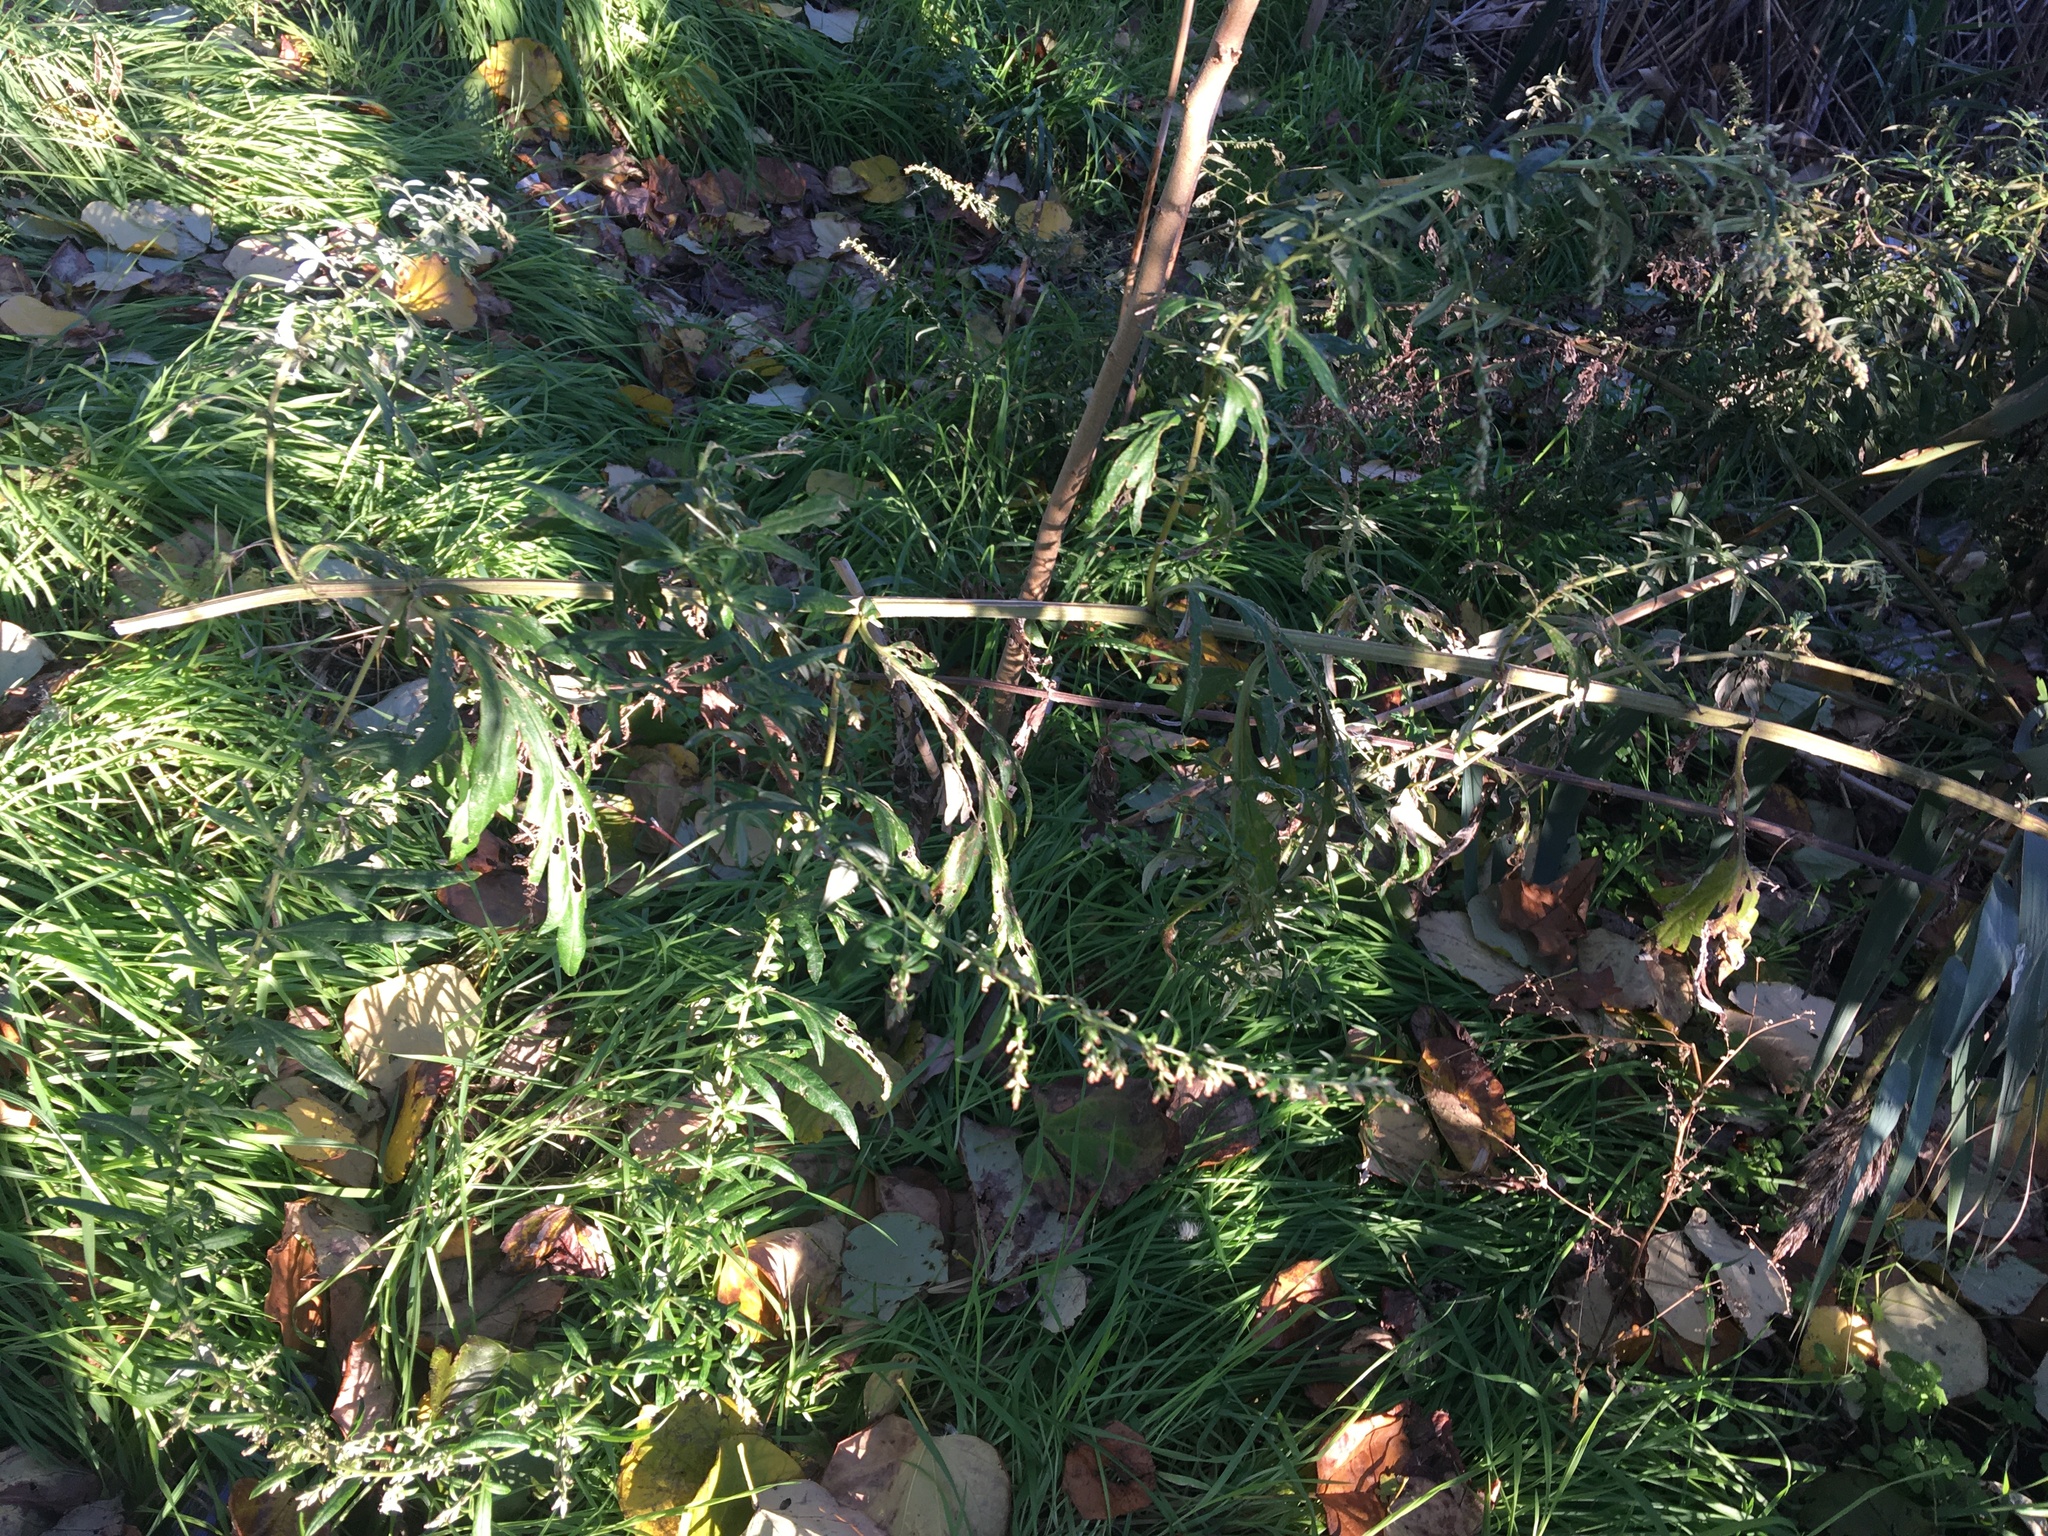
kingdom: Plantae
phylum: Tracheophyta
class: Magnoliopsida
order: Asterales
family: Asteraceae
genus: Artemisia
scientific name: Artemisia vulgaris
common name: Mugwort
